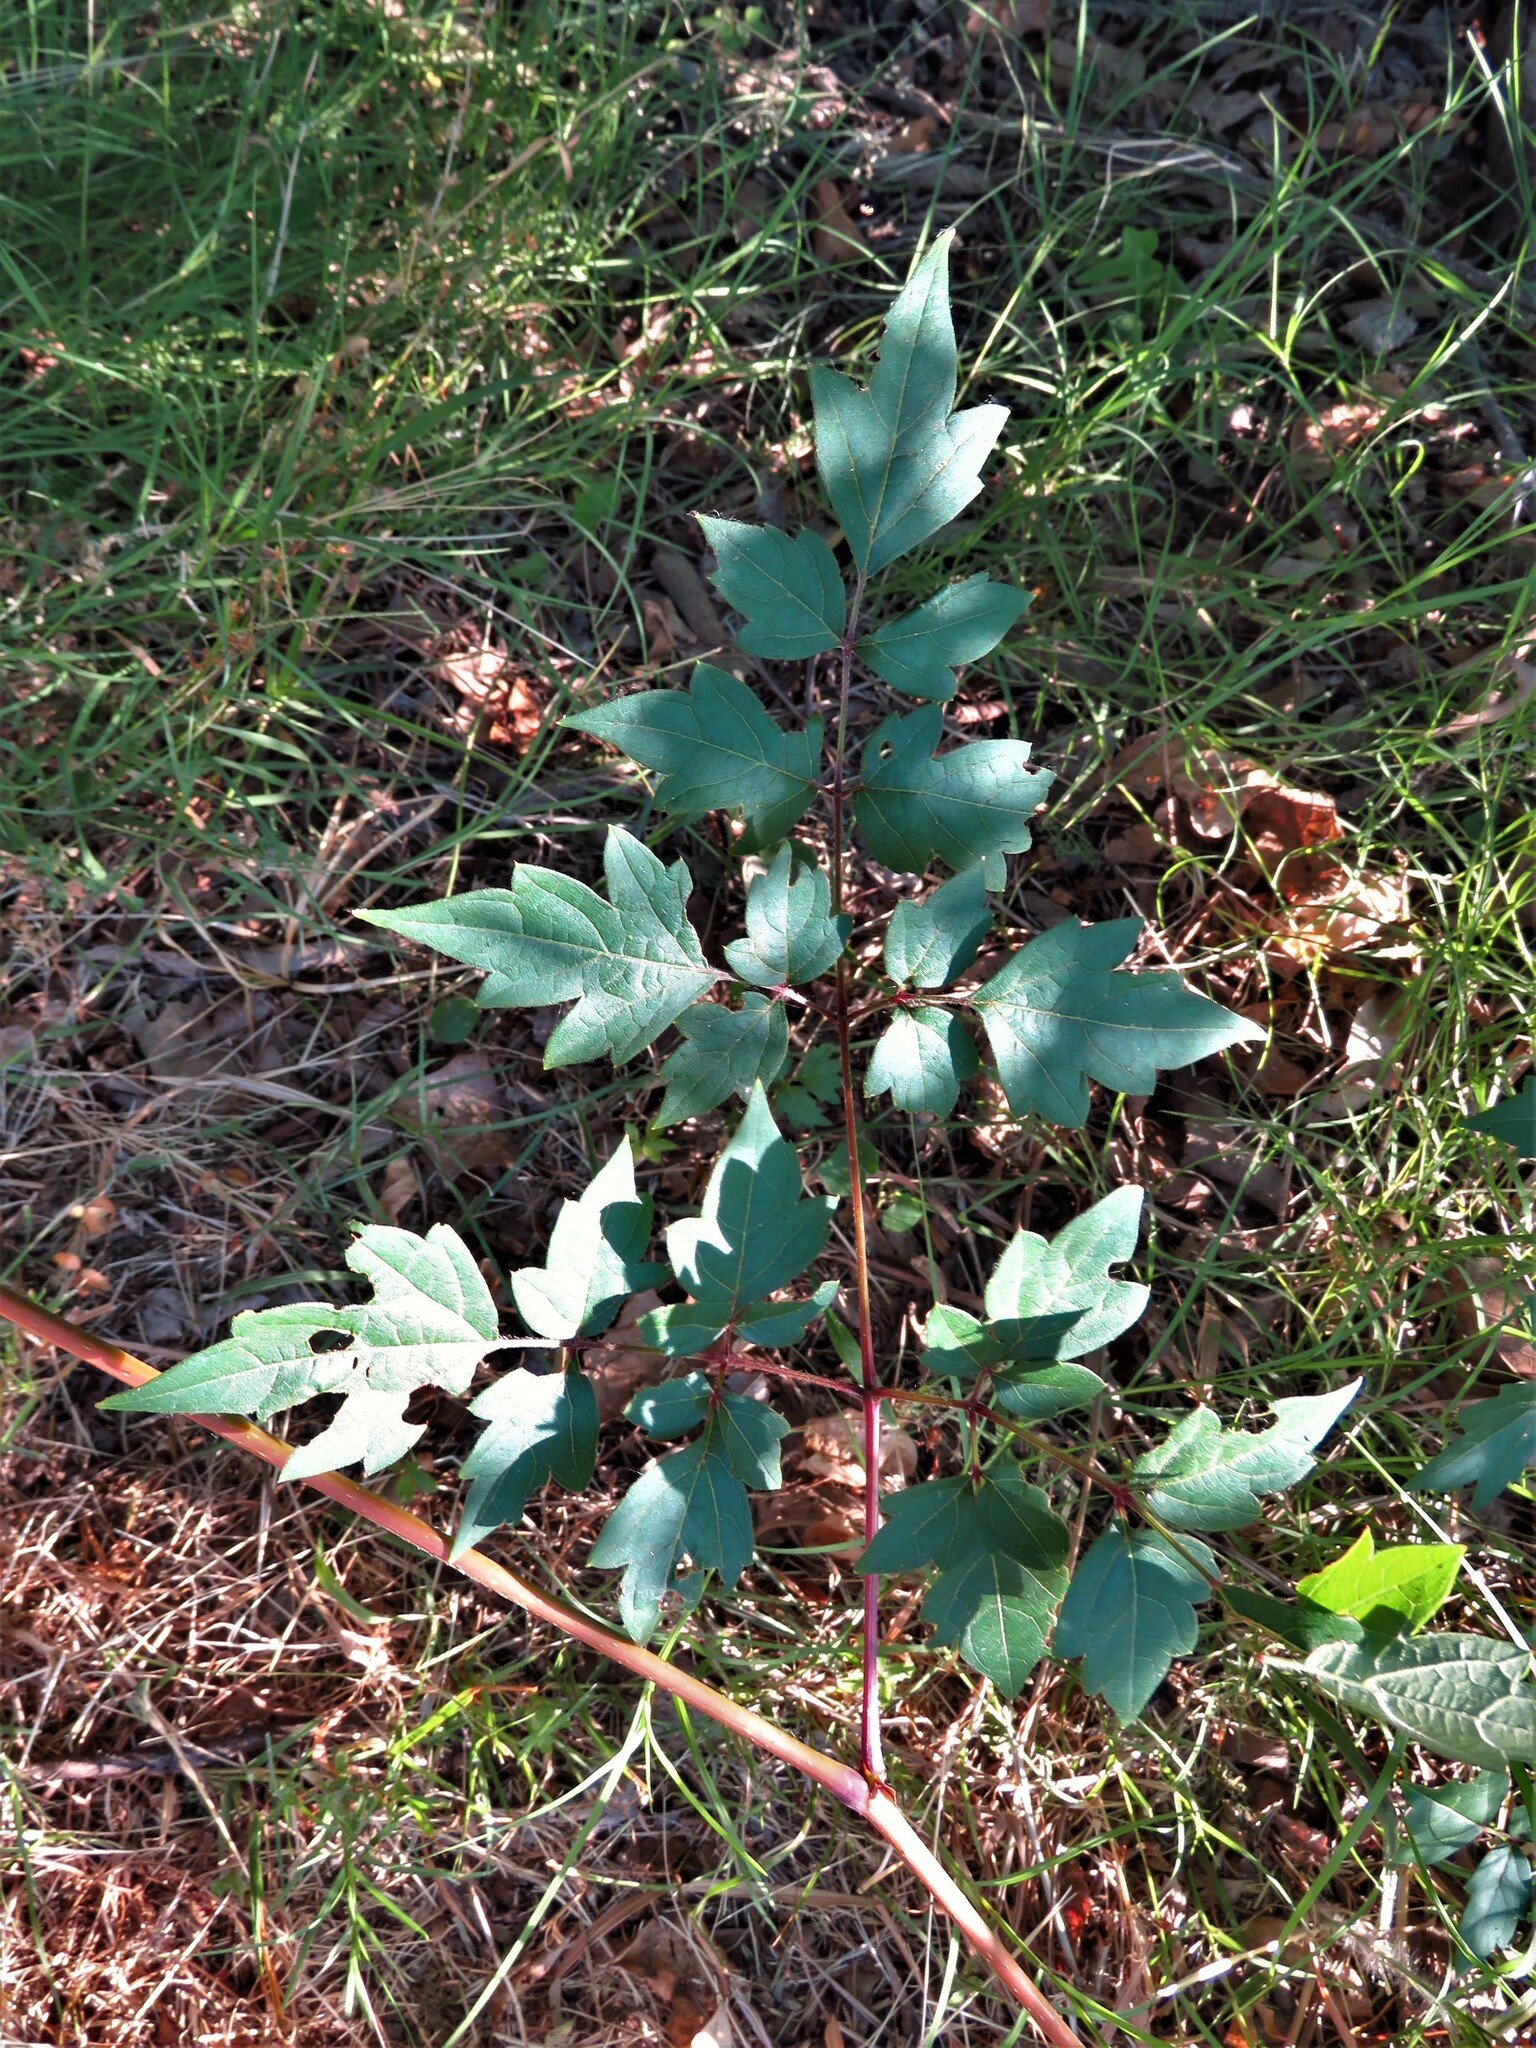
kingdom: Plantae
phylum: Tracheophyta
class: Magnoliopsida
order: Vitales
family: Vitaceae
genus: Nekemias
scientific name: Nekemias arborea
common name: Peppervine
